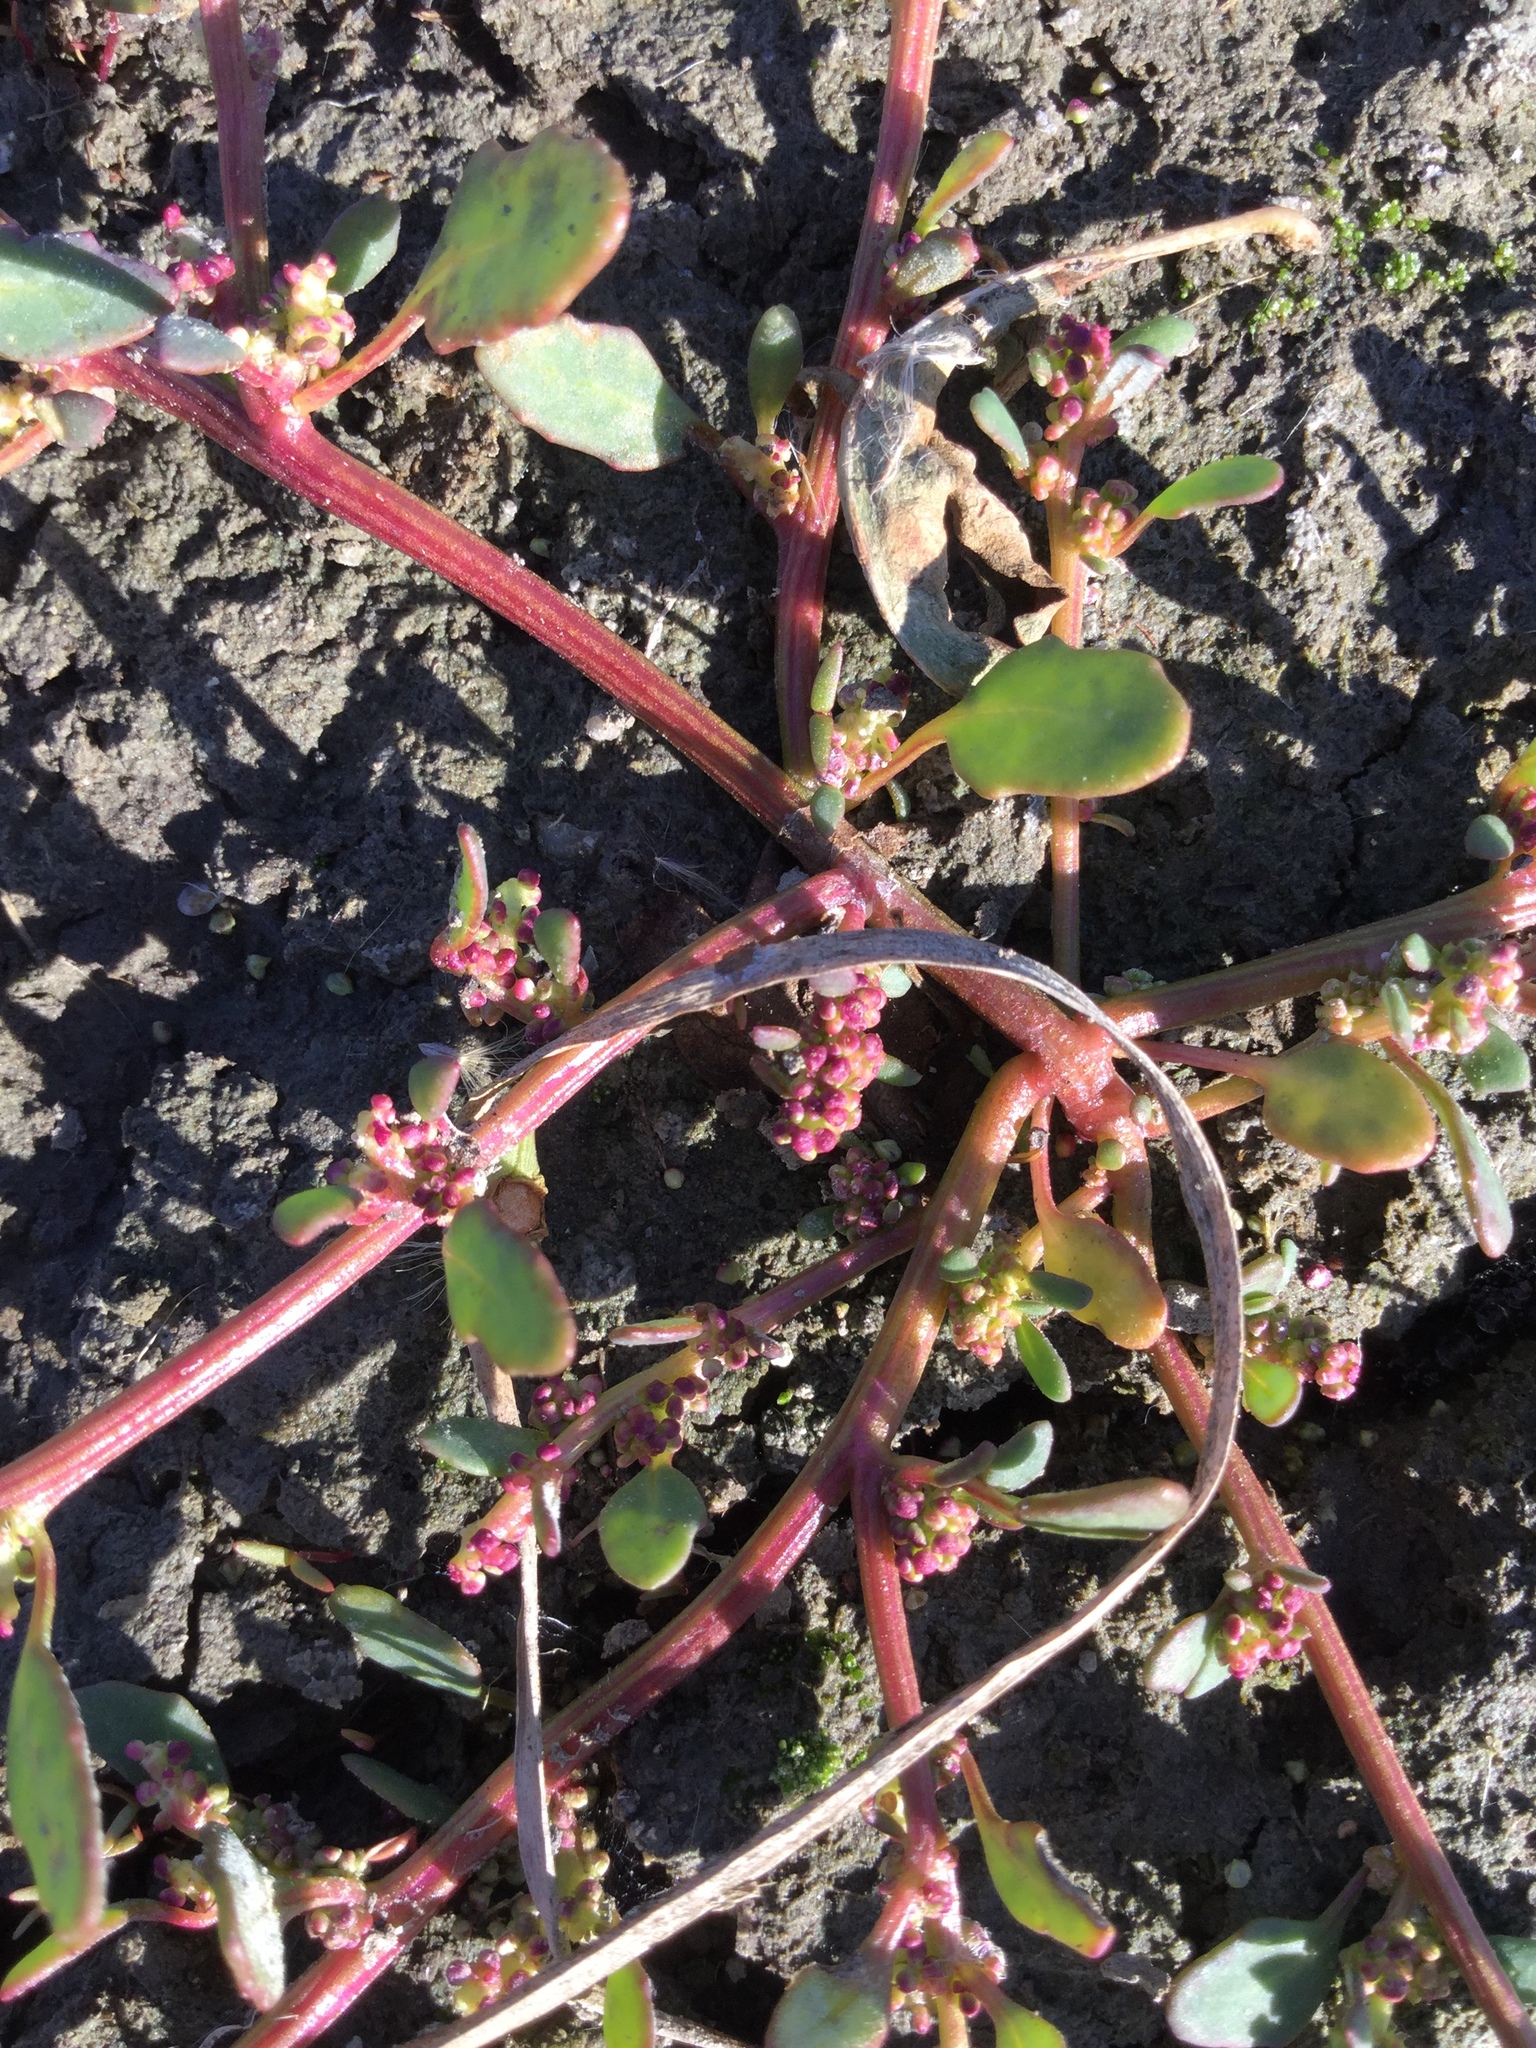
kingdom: Plantae
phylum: Tracheophyta
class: Magnoliopsida
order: Caryophyllales
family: Amaranthaceae
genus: Oxybasis
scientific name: Oxybasis glauca
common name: Glaucous goosefoot
